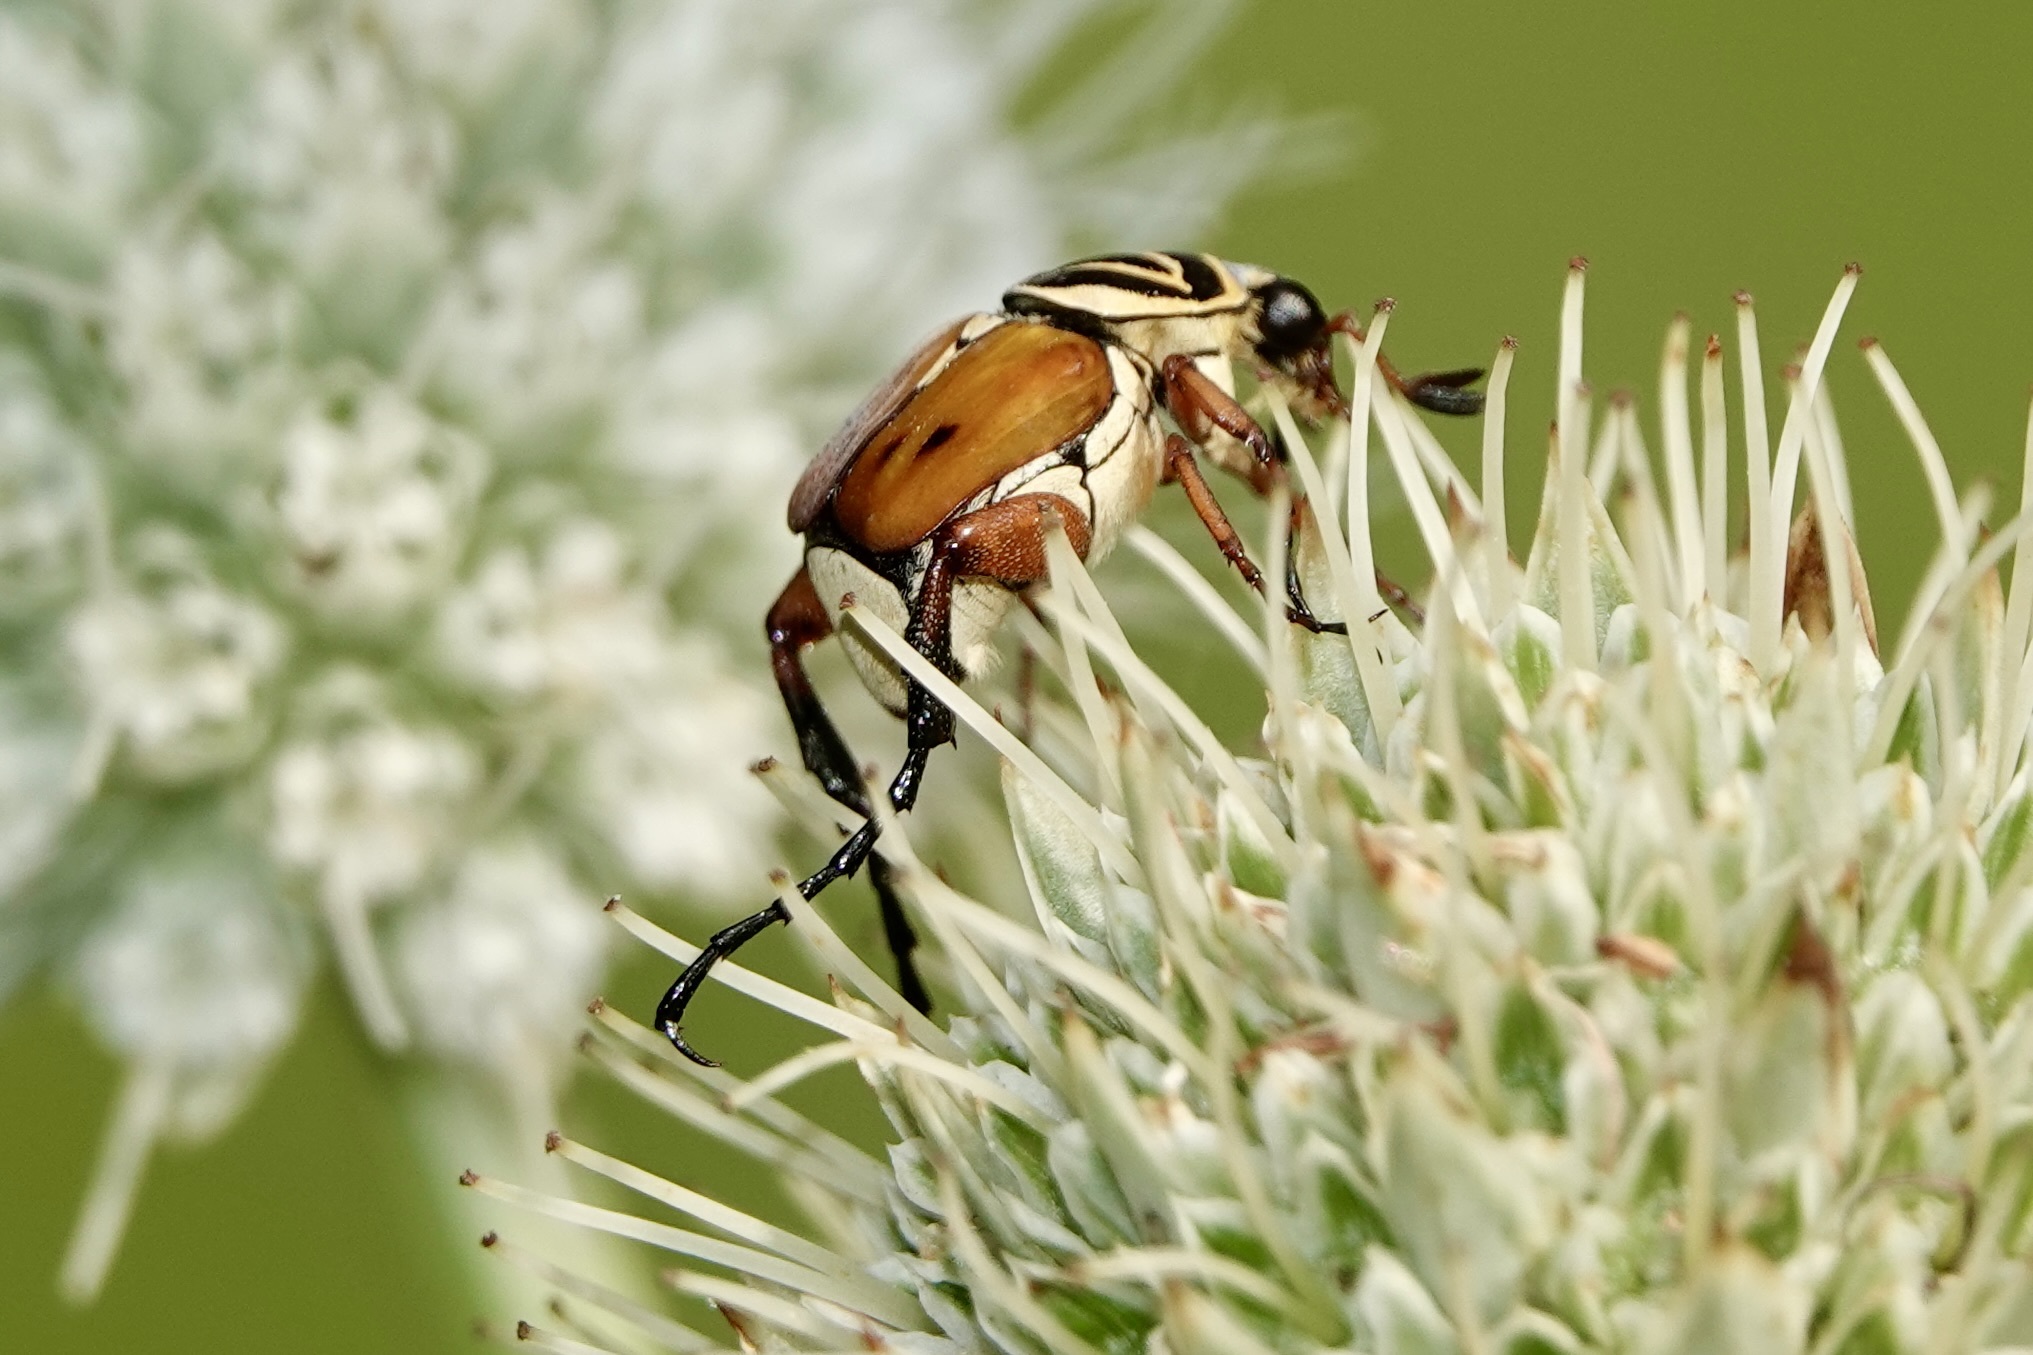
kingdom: Animalia
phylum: Arthropoda
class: Insecta
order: Coleoptera
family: Scarabaeidae
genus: Trigonopeltastes
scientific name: Trigonopeltastes delta
